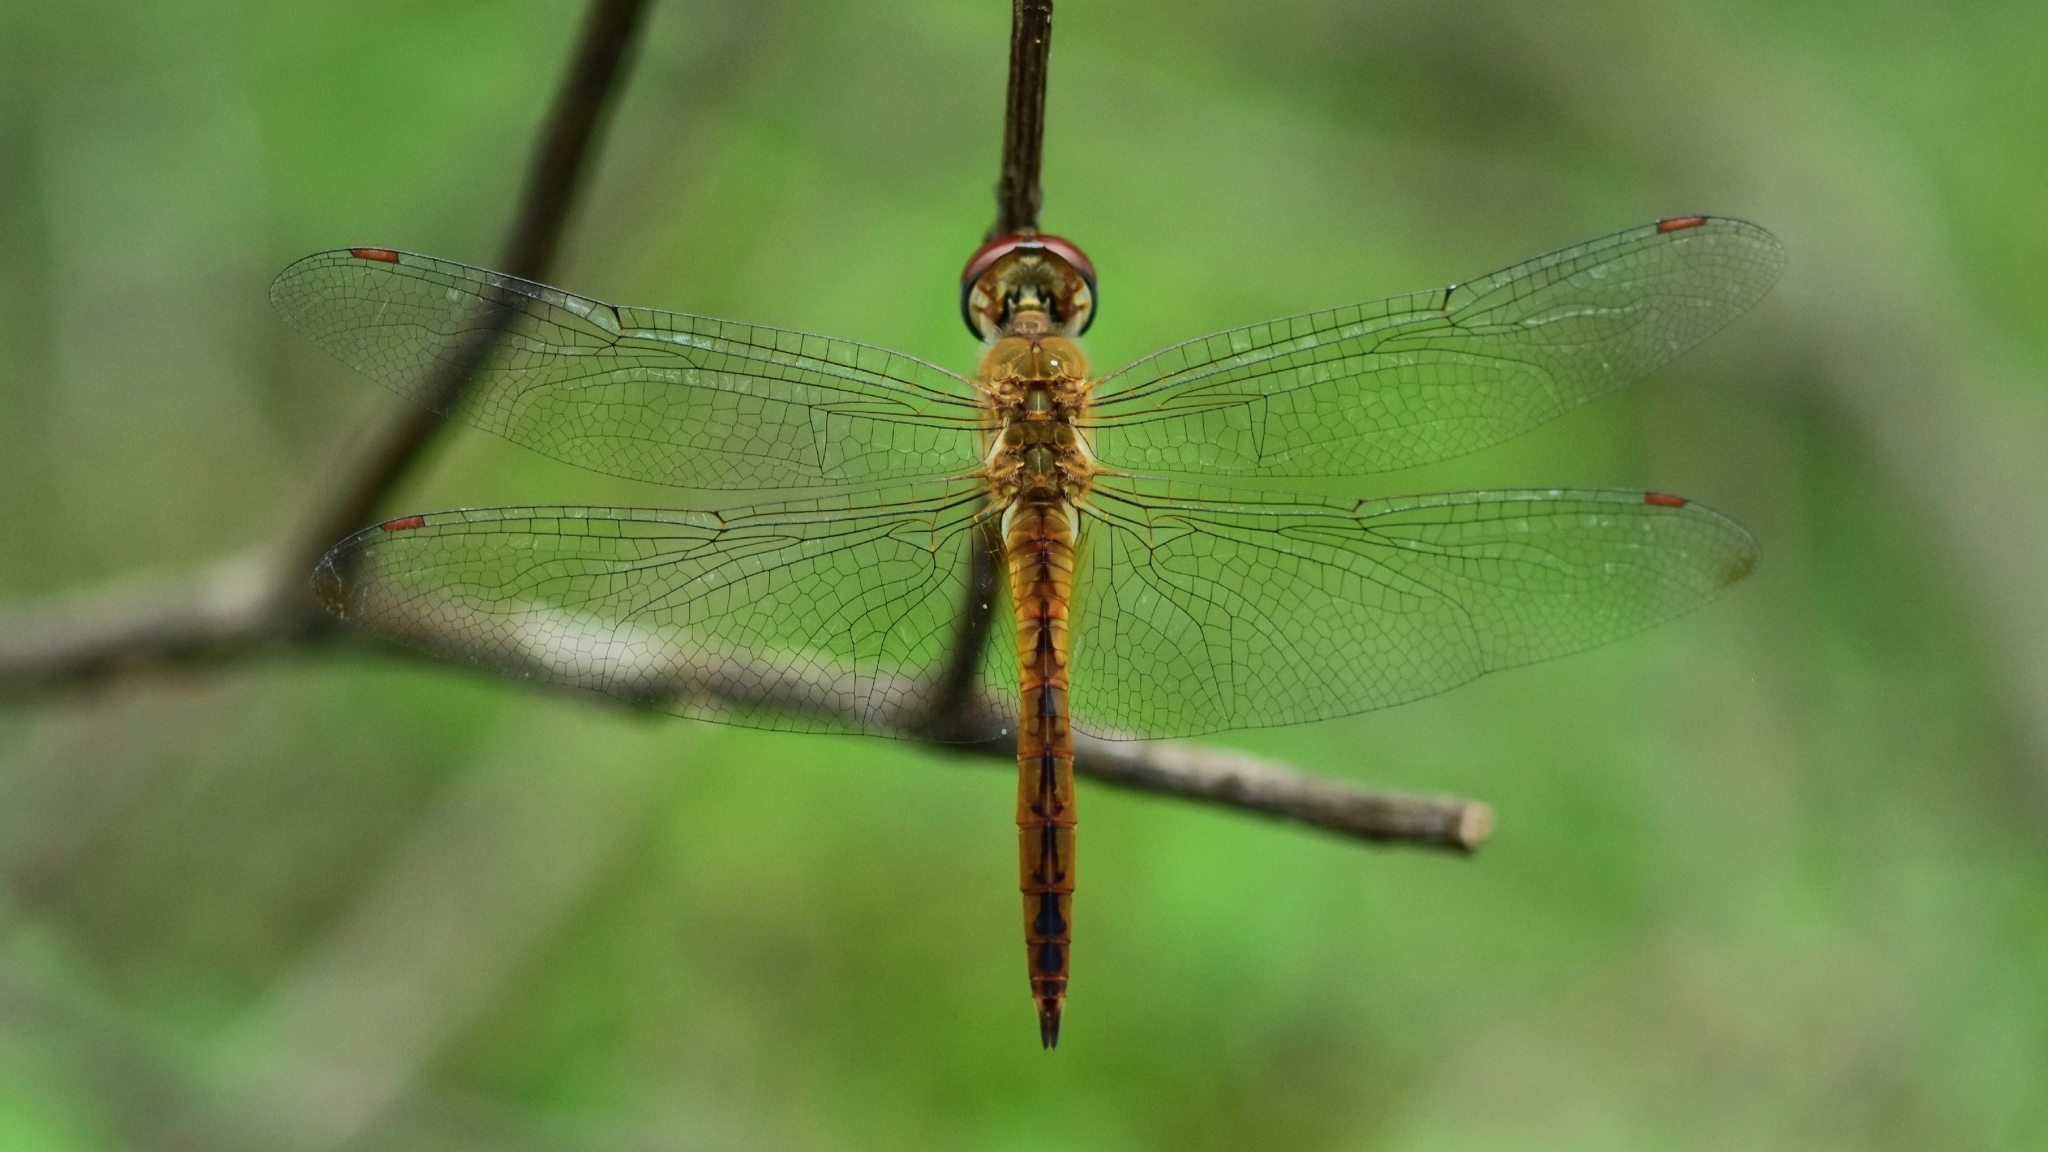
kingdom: Animalia
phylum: Arthropoda
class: Insecta
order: Odonata
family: Libellulidae
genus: Pantala
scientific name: Pantala flavescens
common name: Wandering glider
